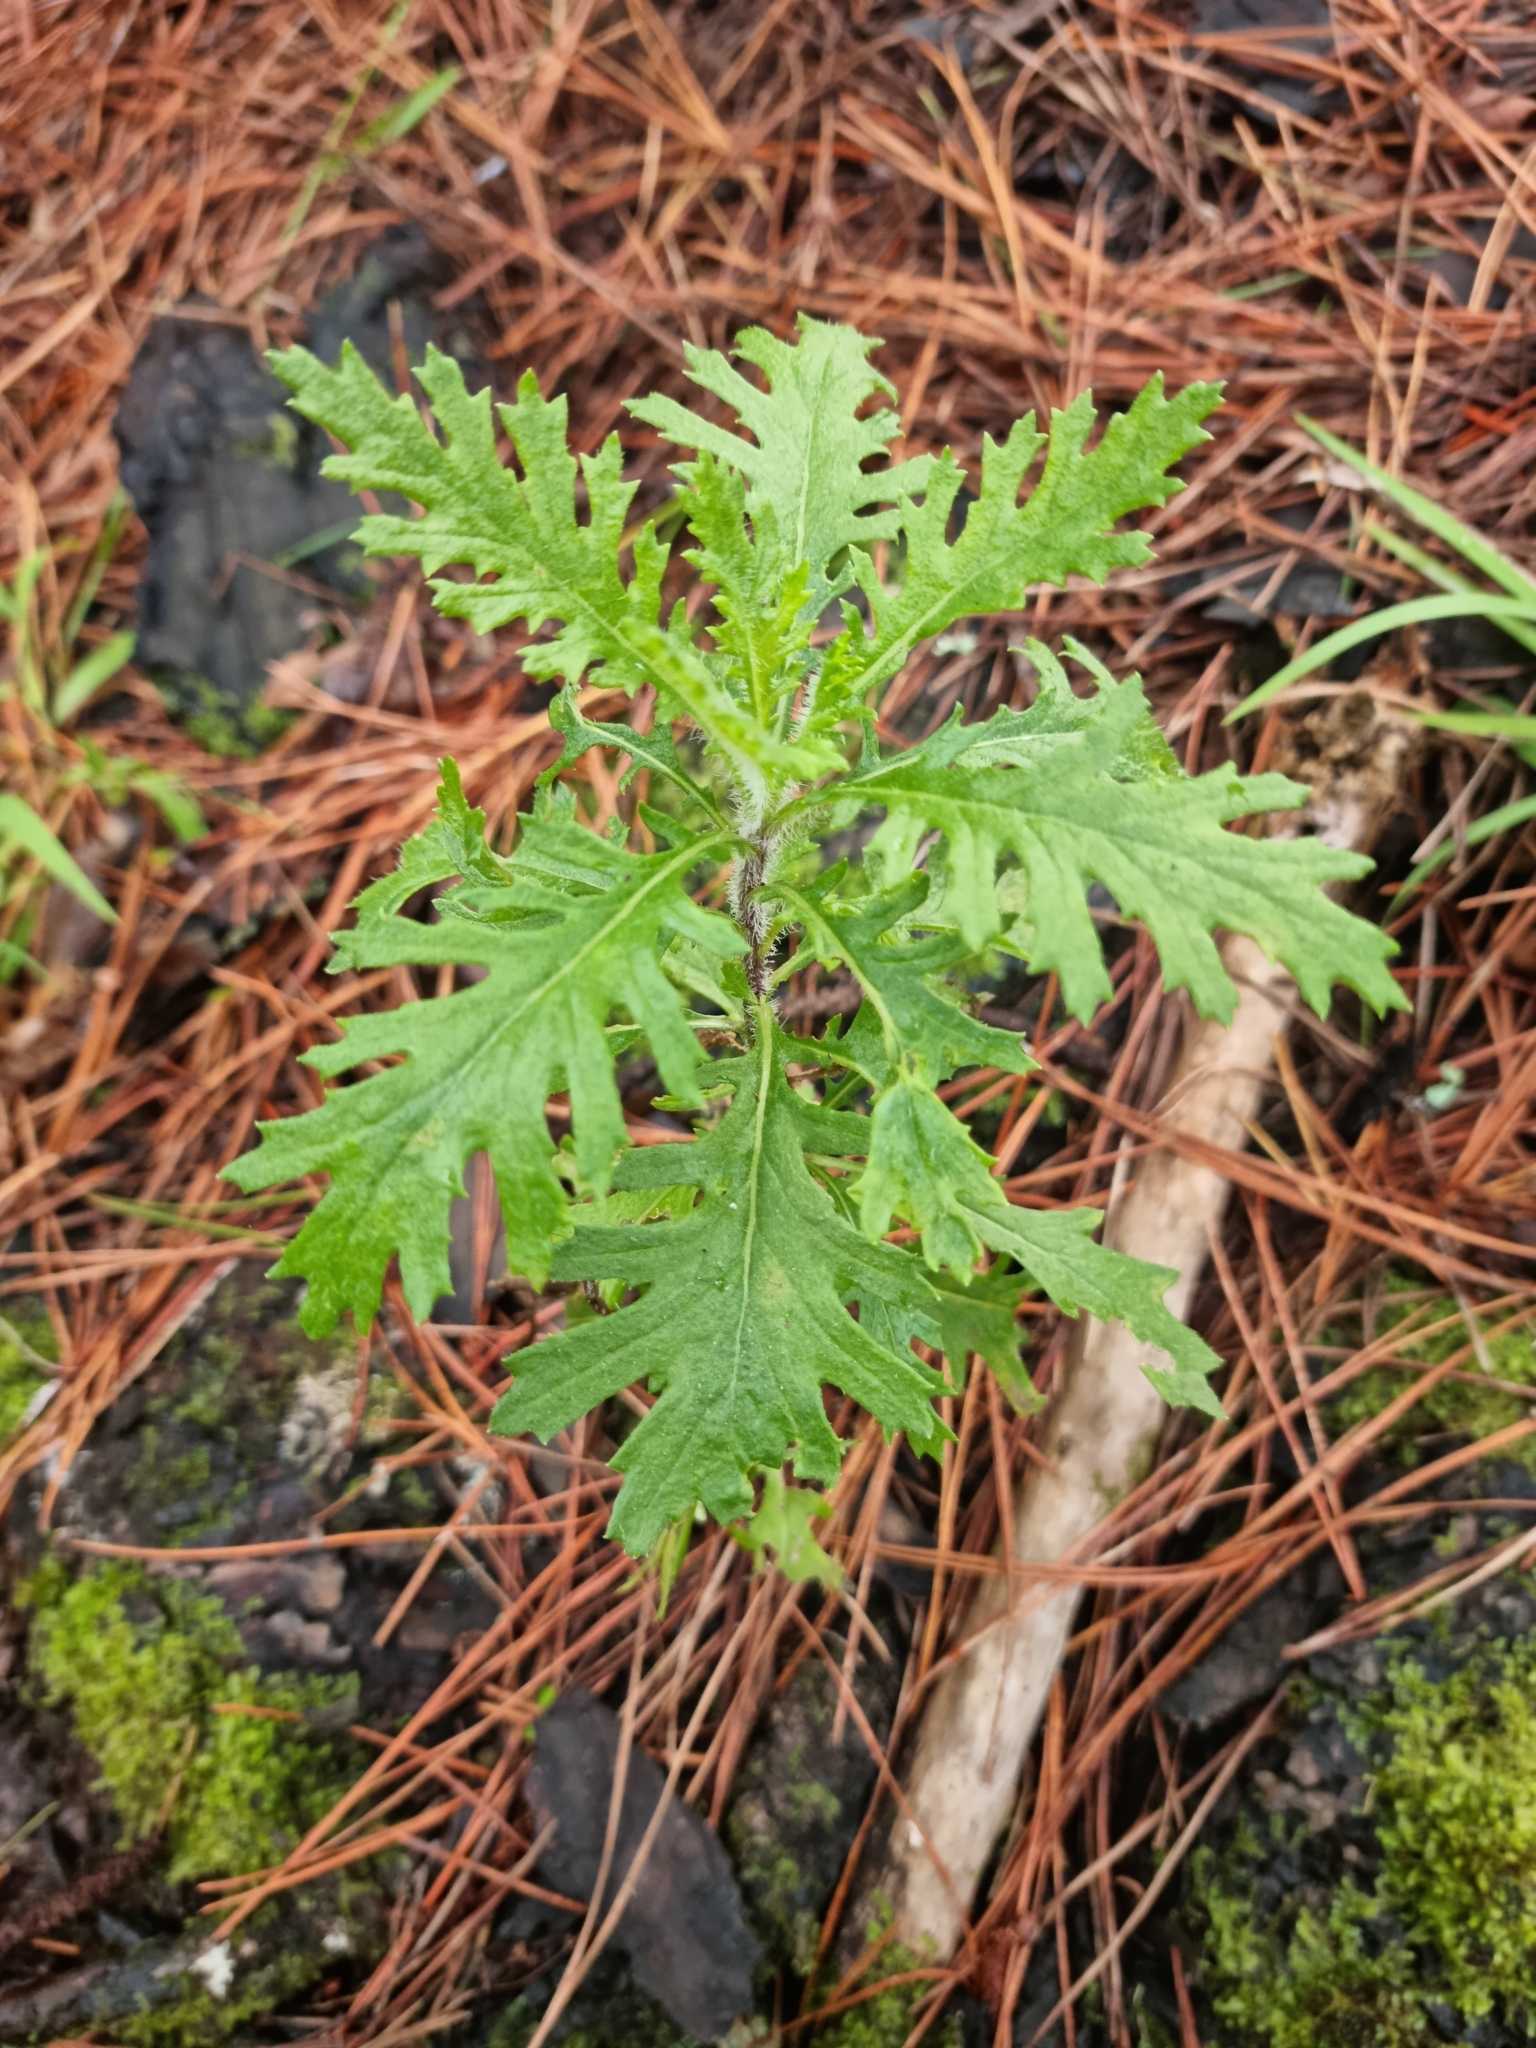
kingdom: Plantae
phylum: Tracheophyta
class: Magnoliopsida
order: Asterales
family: Asteraceae
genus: Senecio
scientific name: Senecio esleri
